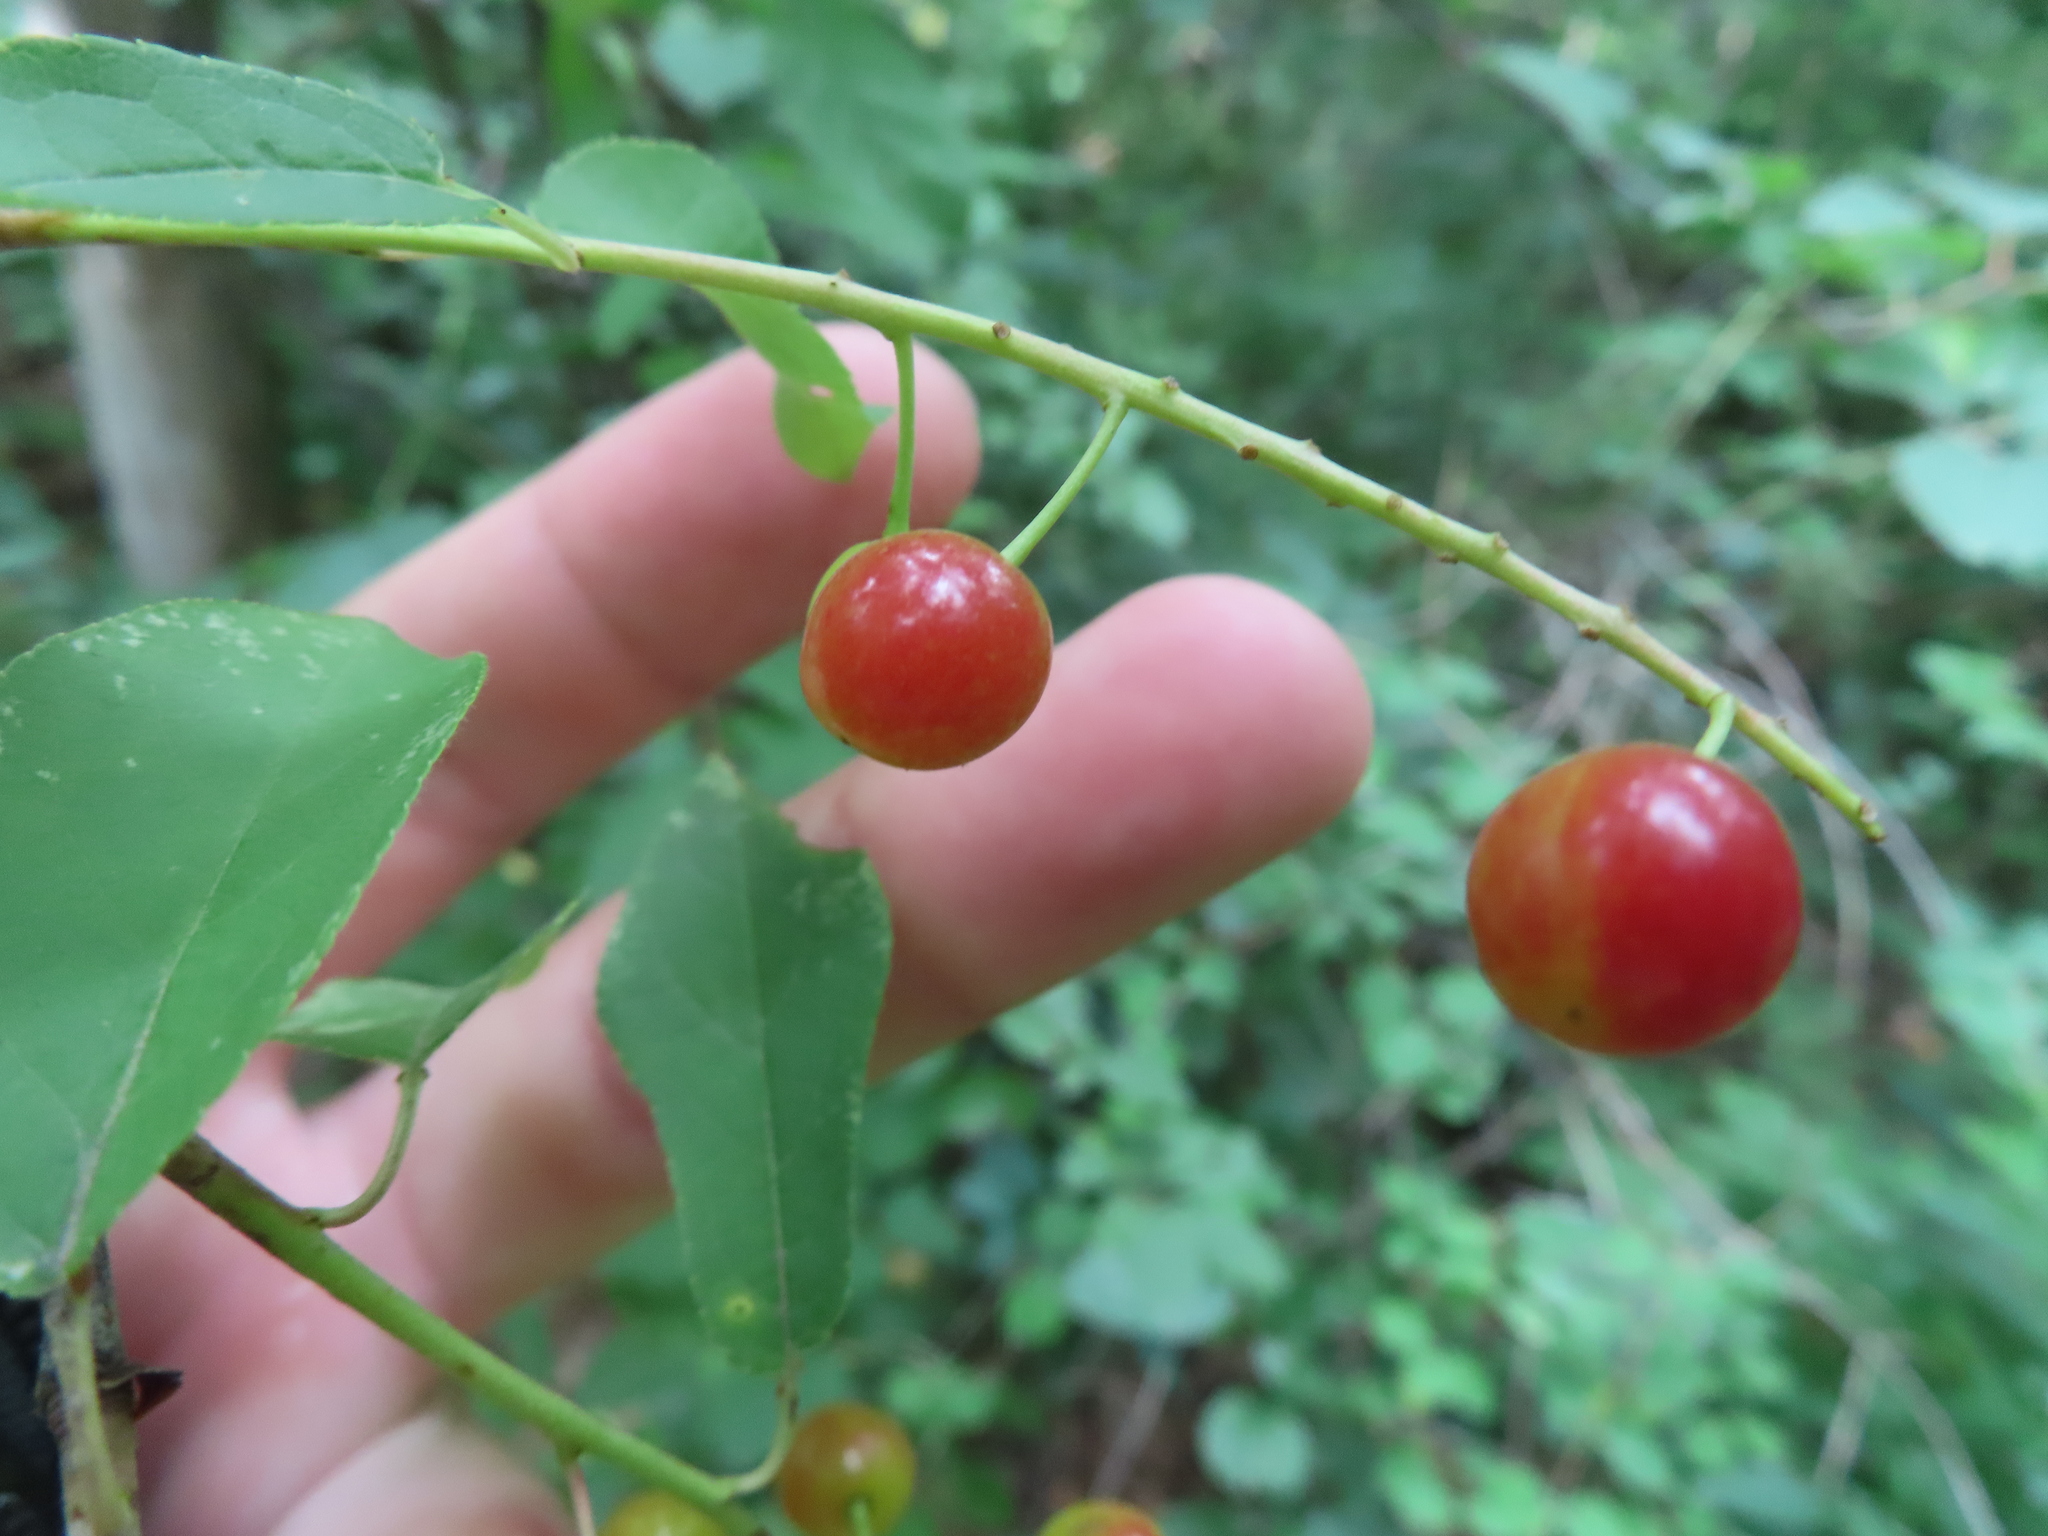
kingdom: Plantae
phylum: Tracheophyta
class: Magnoliopsida
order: Rosales
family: Rosaceae
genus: Prunus
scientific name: Prunus virginiana
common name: Chokecherry
